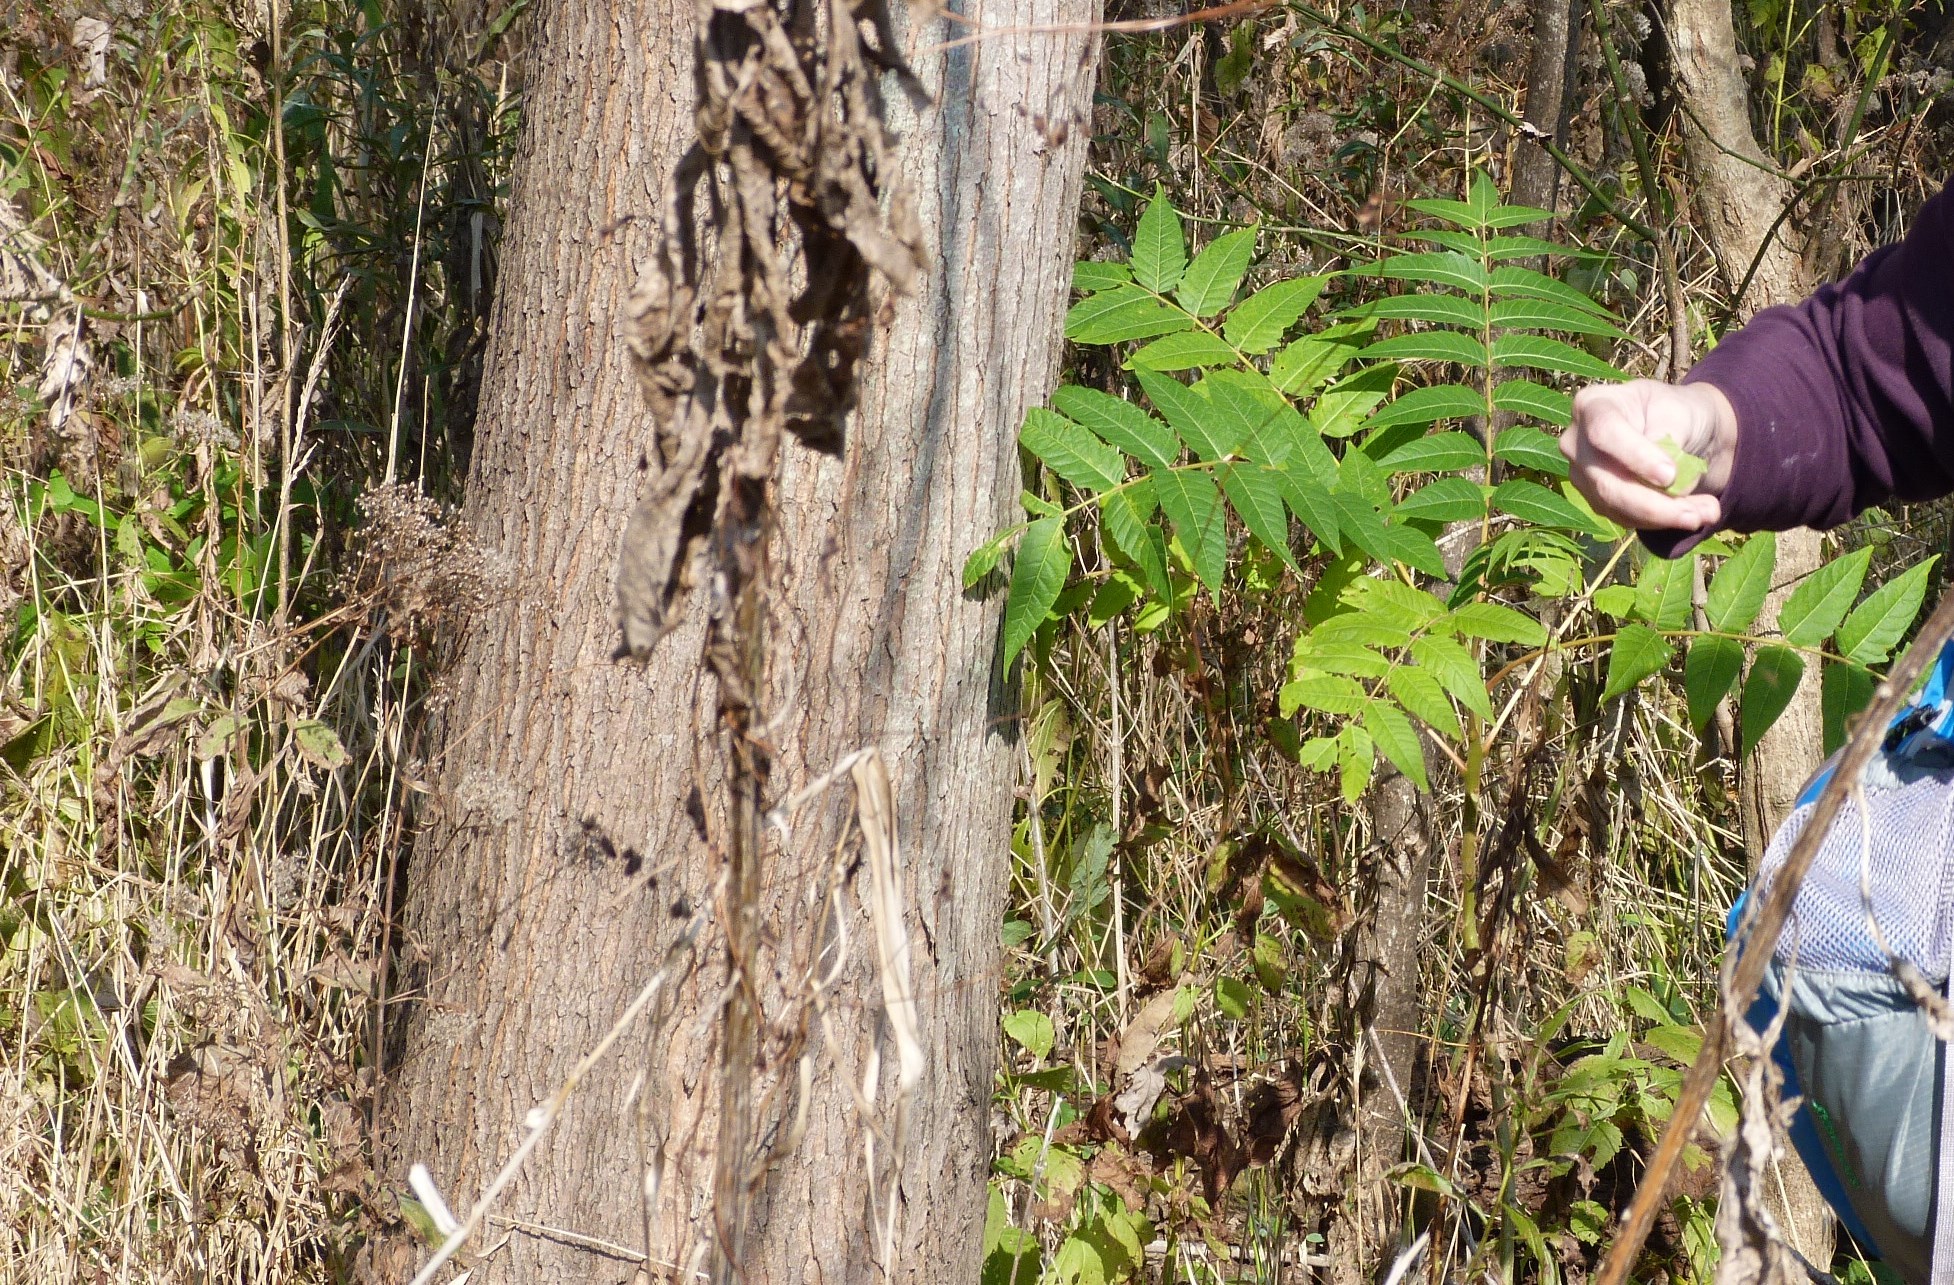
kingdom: Plantae
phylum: Tracheophyta
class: Magnoliopsida
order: Sapindales
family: Simaroubaceae
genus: Ailanthus
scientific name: Ailanthus altissima
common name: Tree-of-heaven
